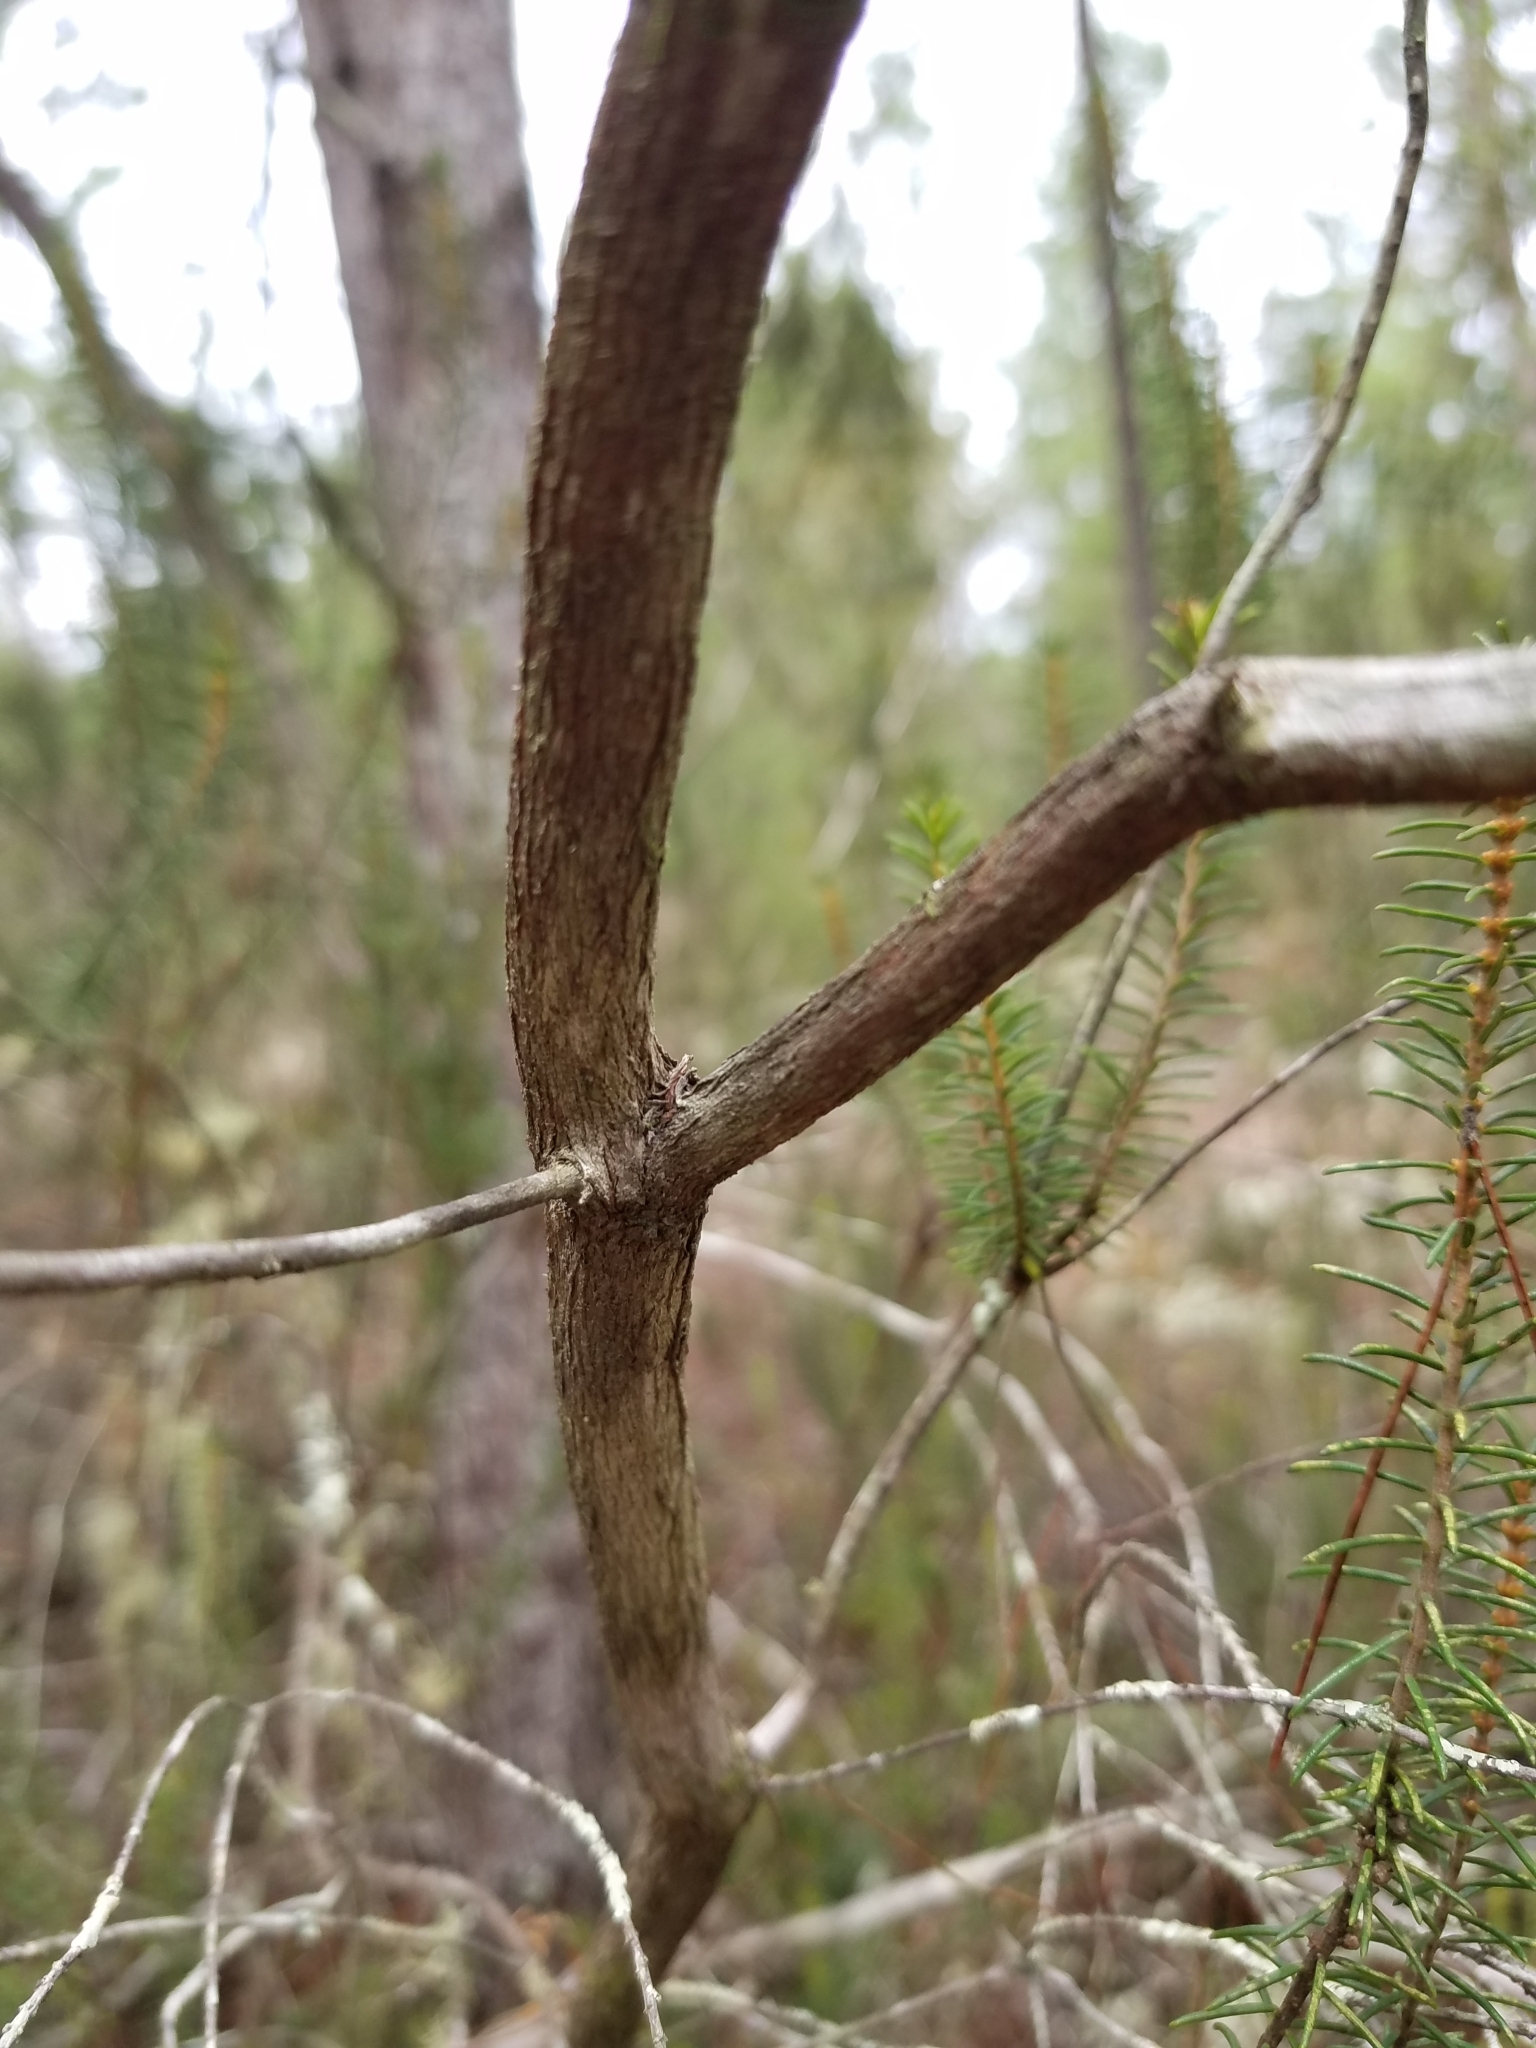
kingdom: Plantae
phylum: Tracheophyta
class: Magnoliopsida
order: Ericales
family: Ericaceae
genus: Ceratiola
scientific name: Ceratiola ericoides
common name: Sandhill-rosemary
